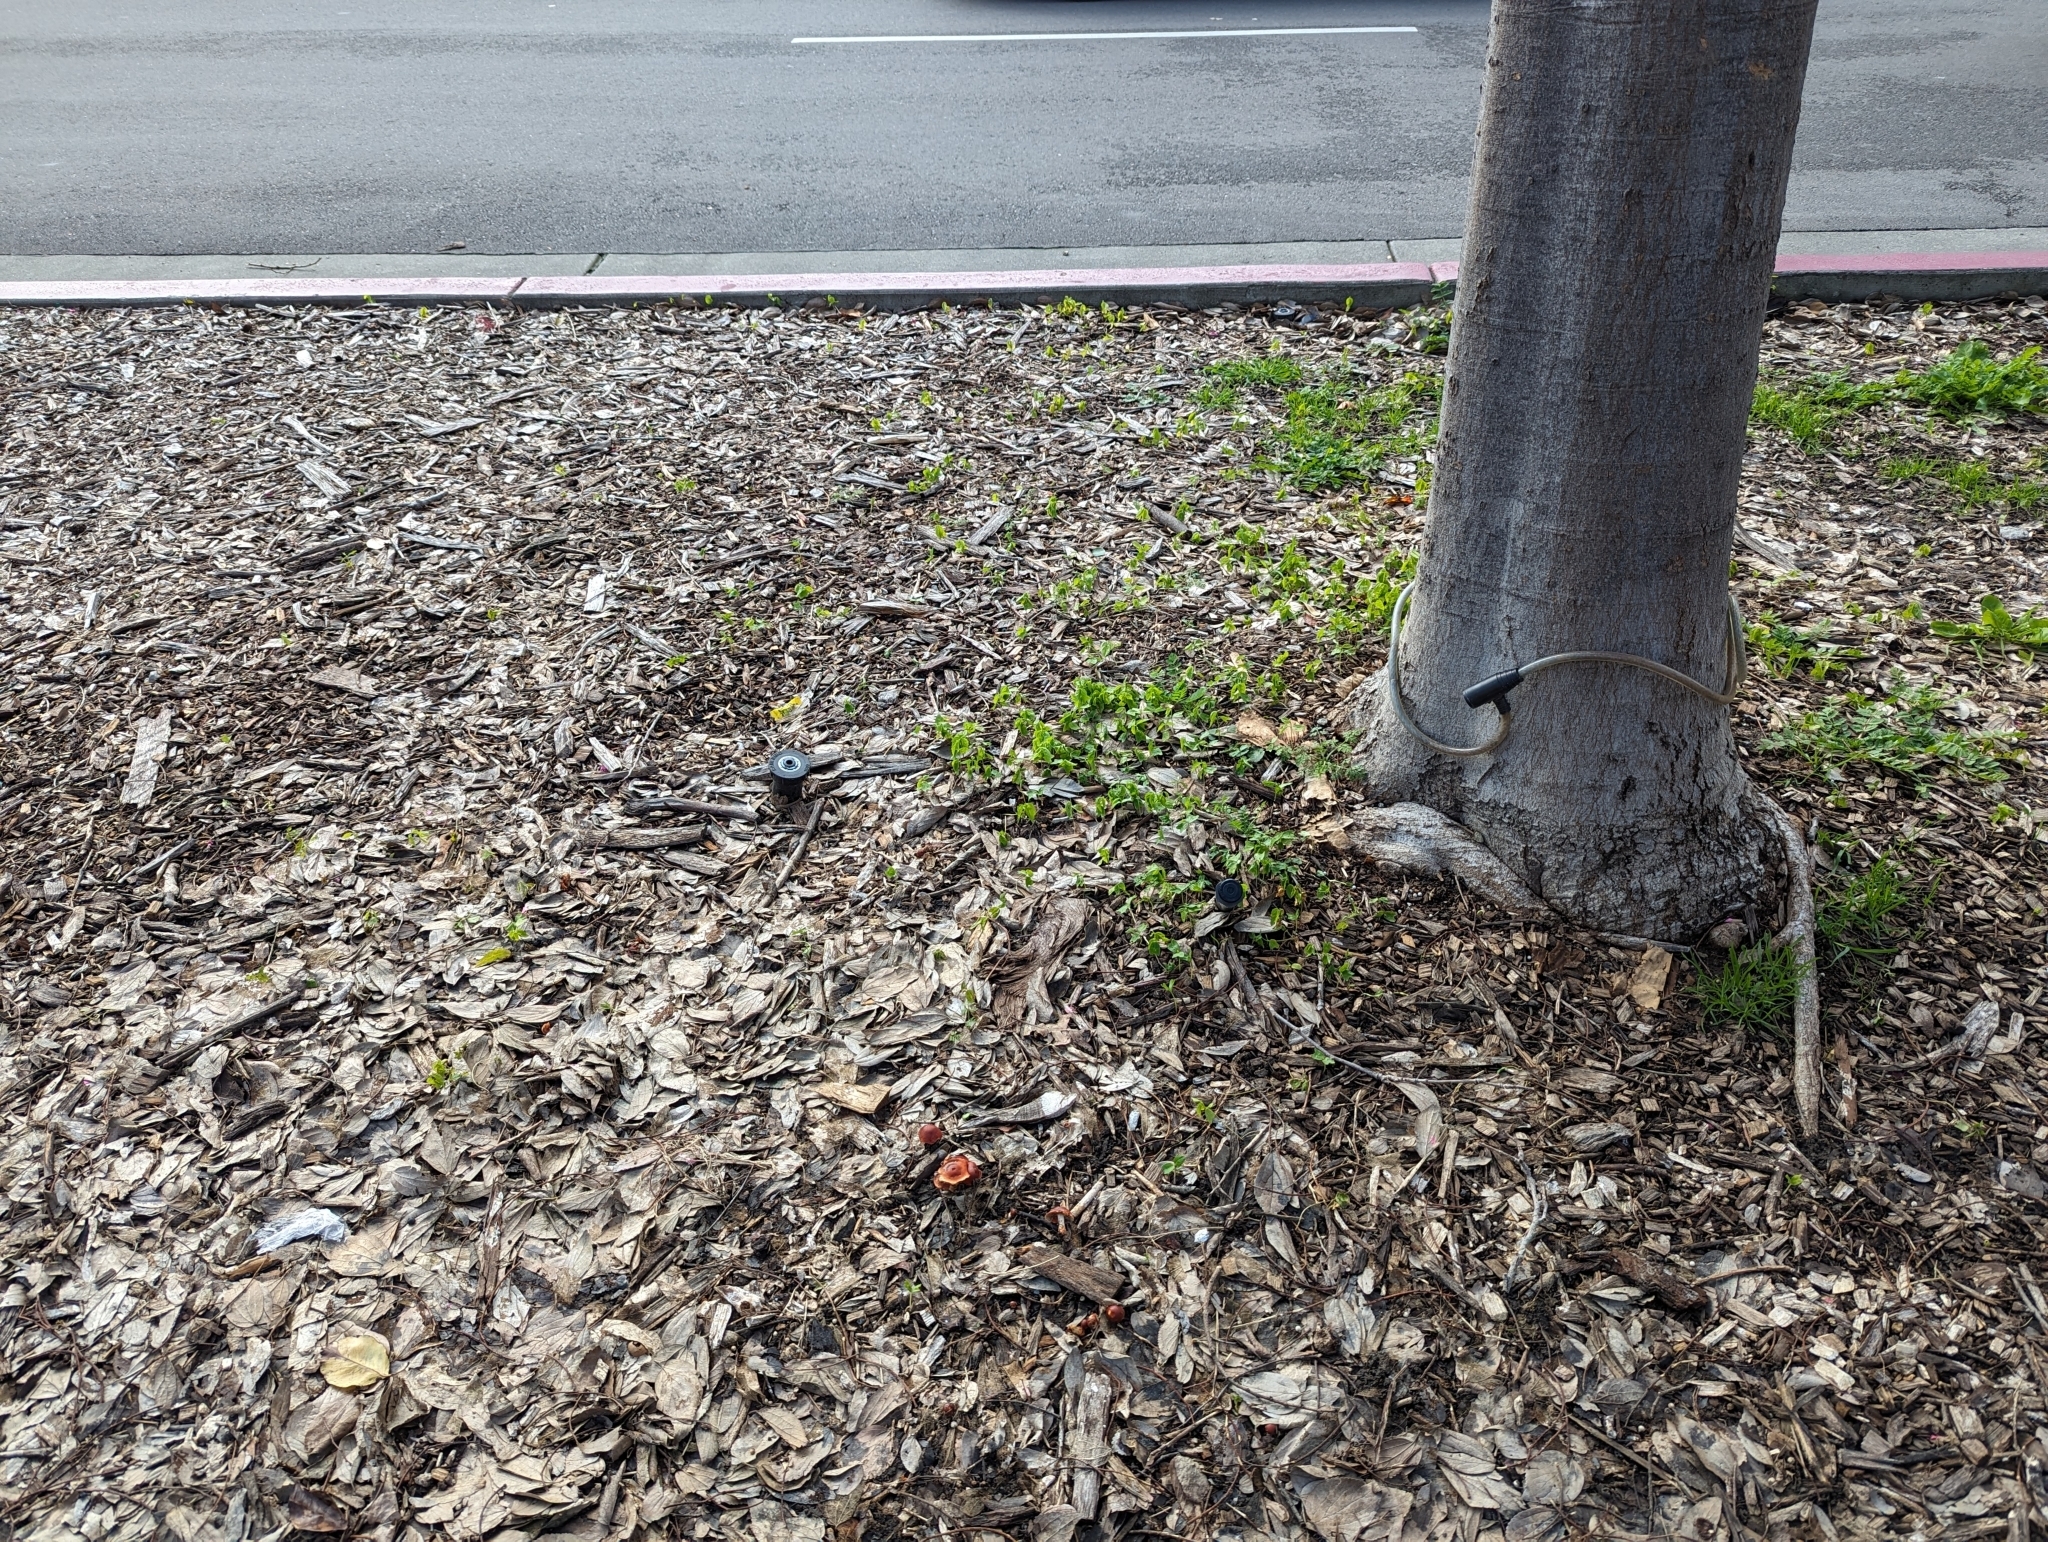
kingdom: Fungi
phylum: Basidiomycota
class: Agaricomycetes
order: Agaricales
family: Strophariaceae
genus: Leratiomyces
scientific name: Leratiomyces ceres
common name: Redlead roundhead
